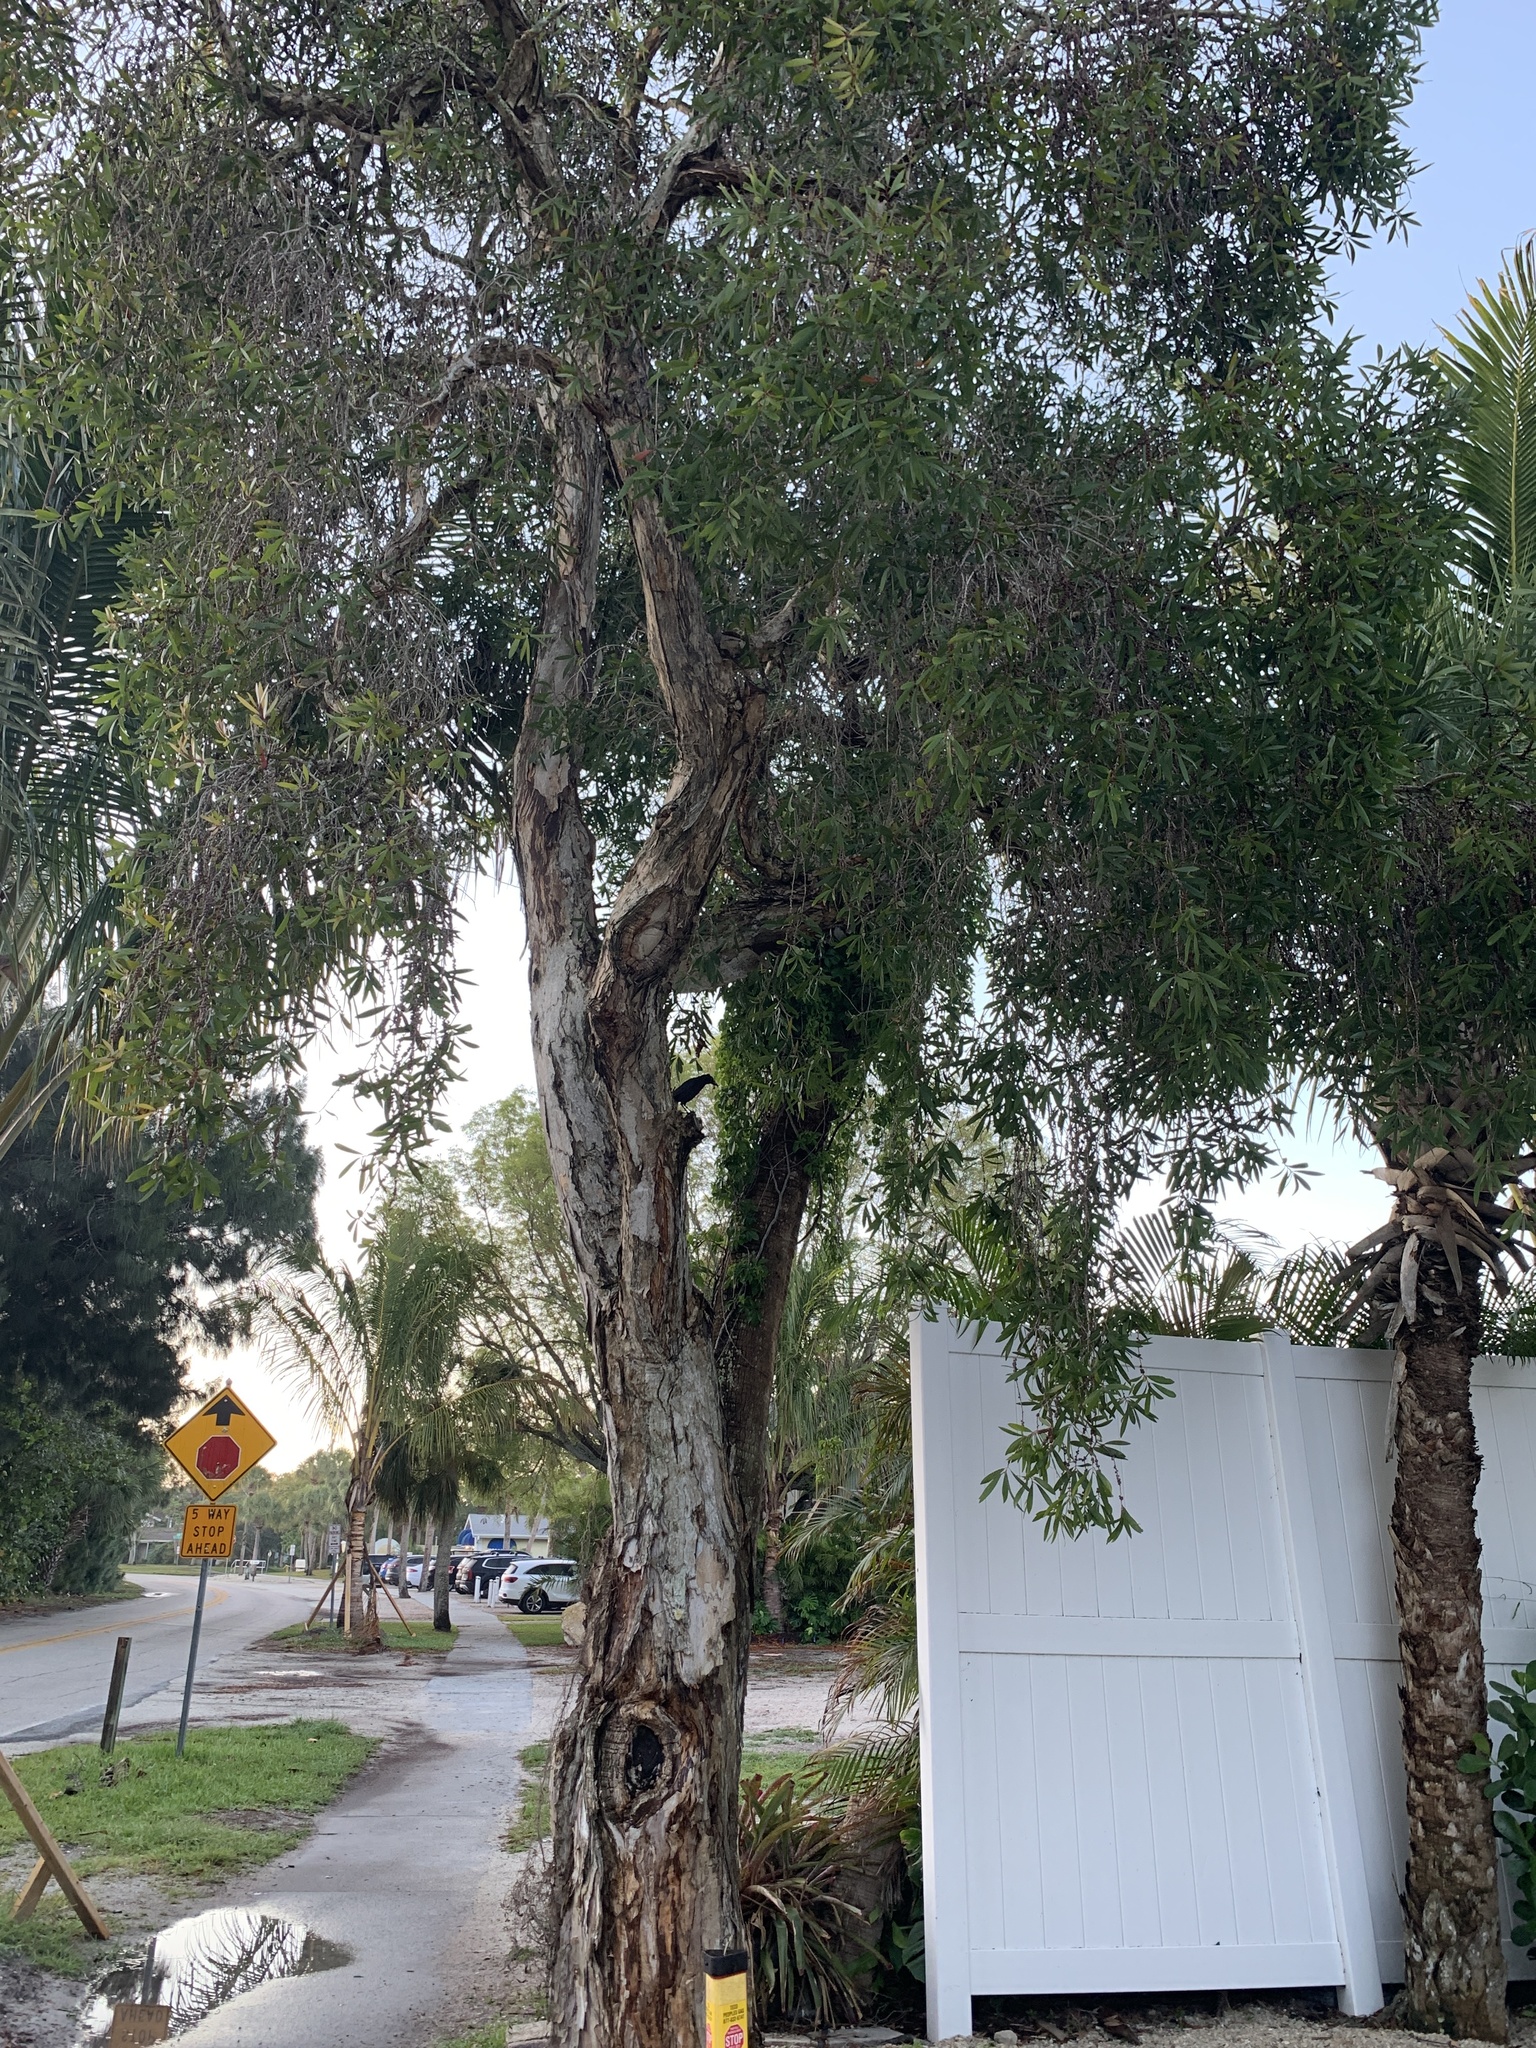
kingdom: Plantae
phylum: Tracheophyta
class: Magnoliopsida
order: Myrtales
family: Myrtaceae
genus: Melaleuca
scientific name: Melaleuca leucadendra
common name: Weeping paperbark
